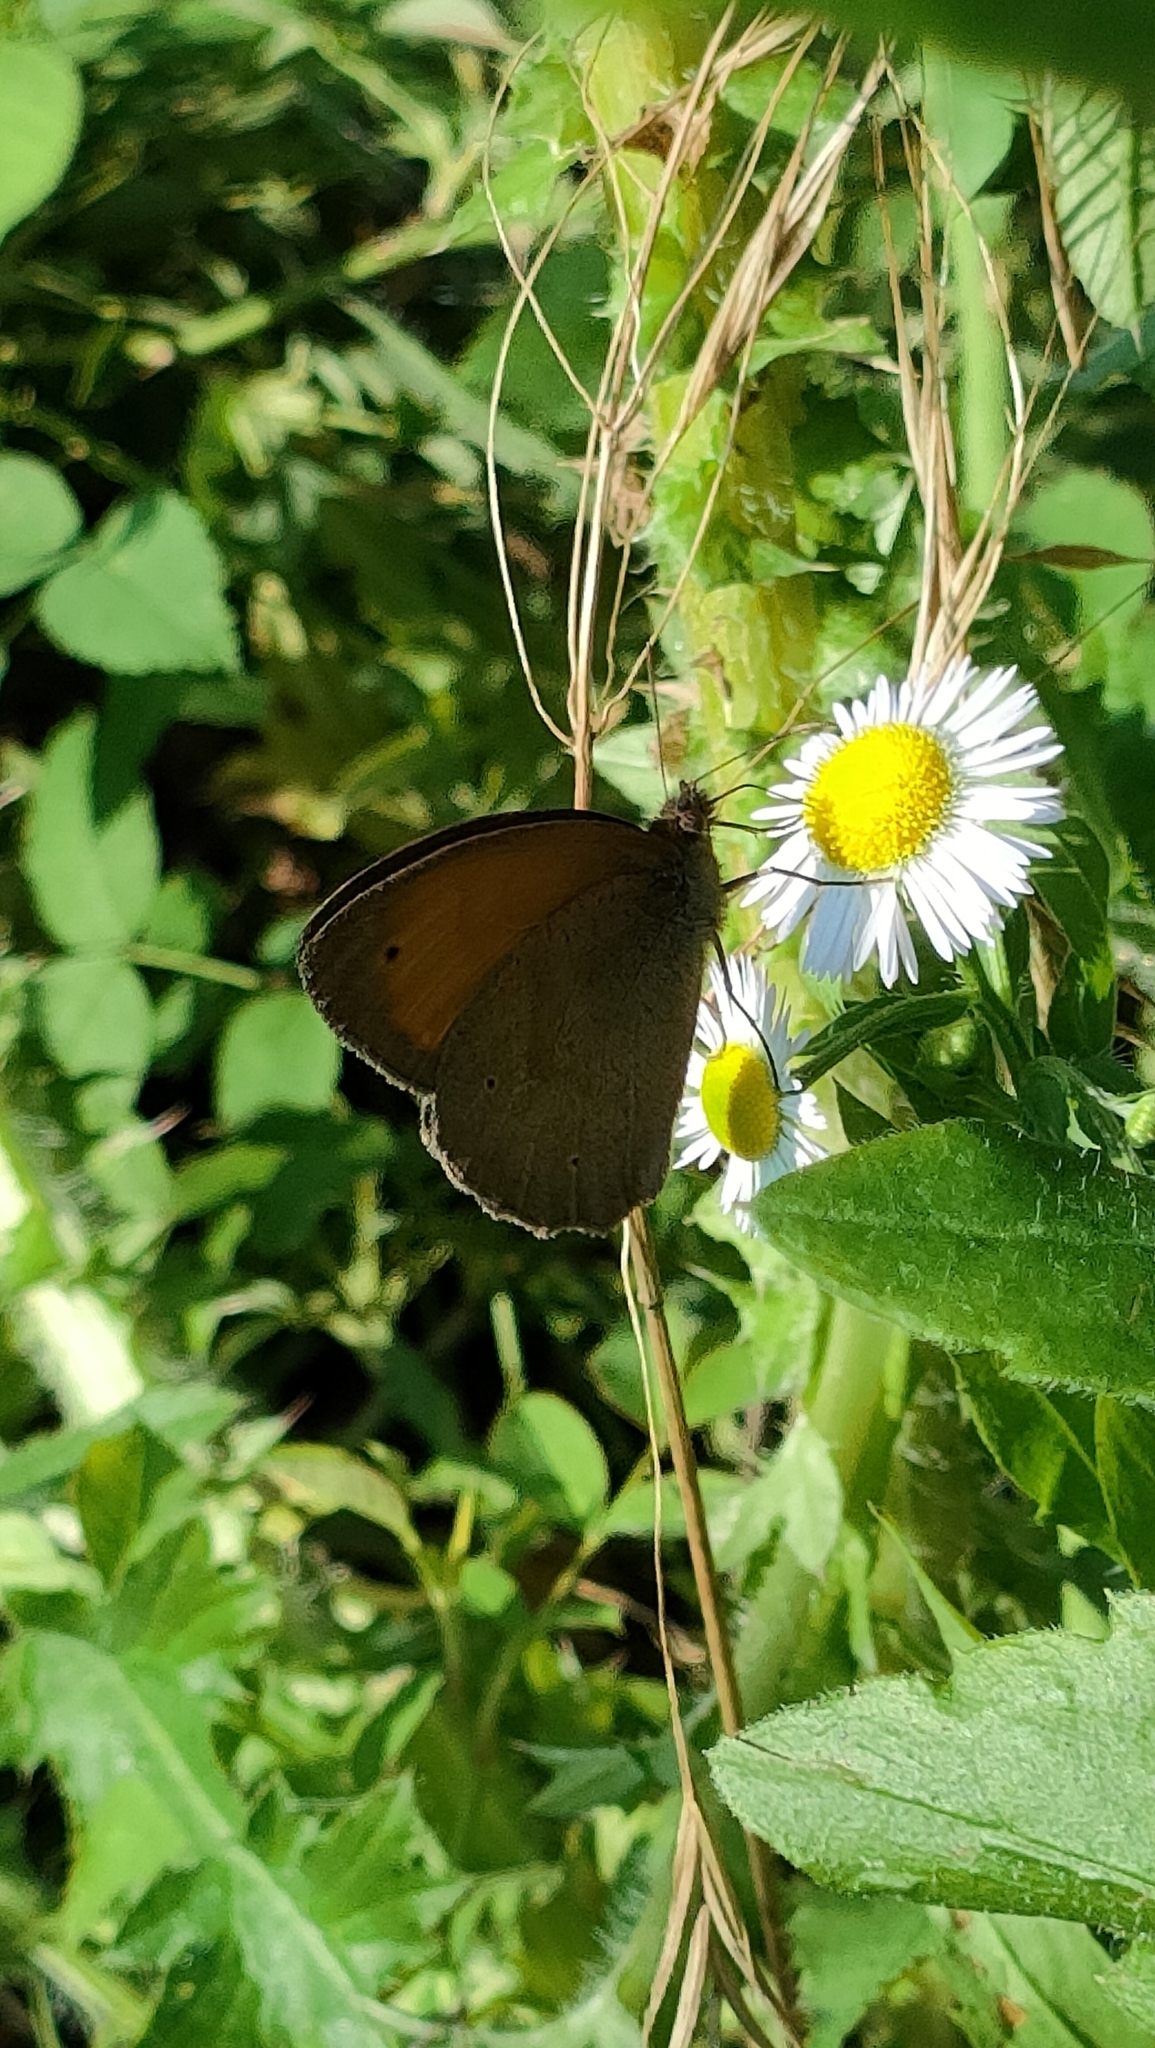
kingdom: Animalia
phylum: Arthropoda
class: Insecta
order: Lepidoptera
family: Nymphalidae
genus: Maniola
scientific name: Maniola jurtina
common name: Meadow brown
